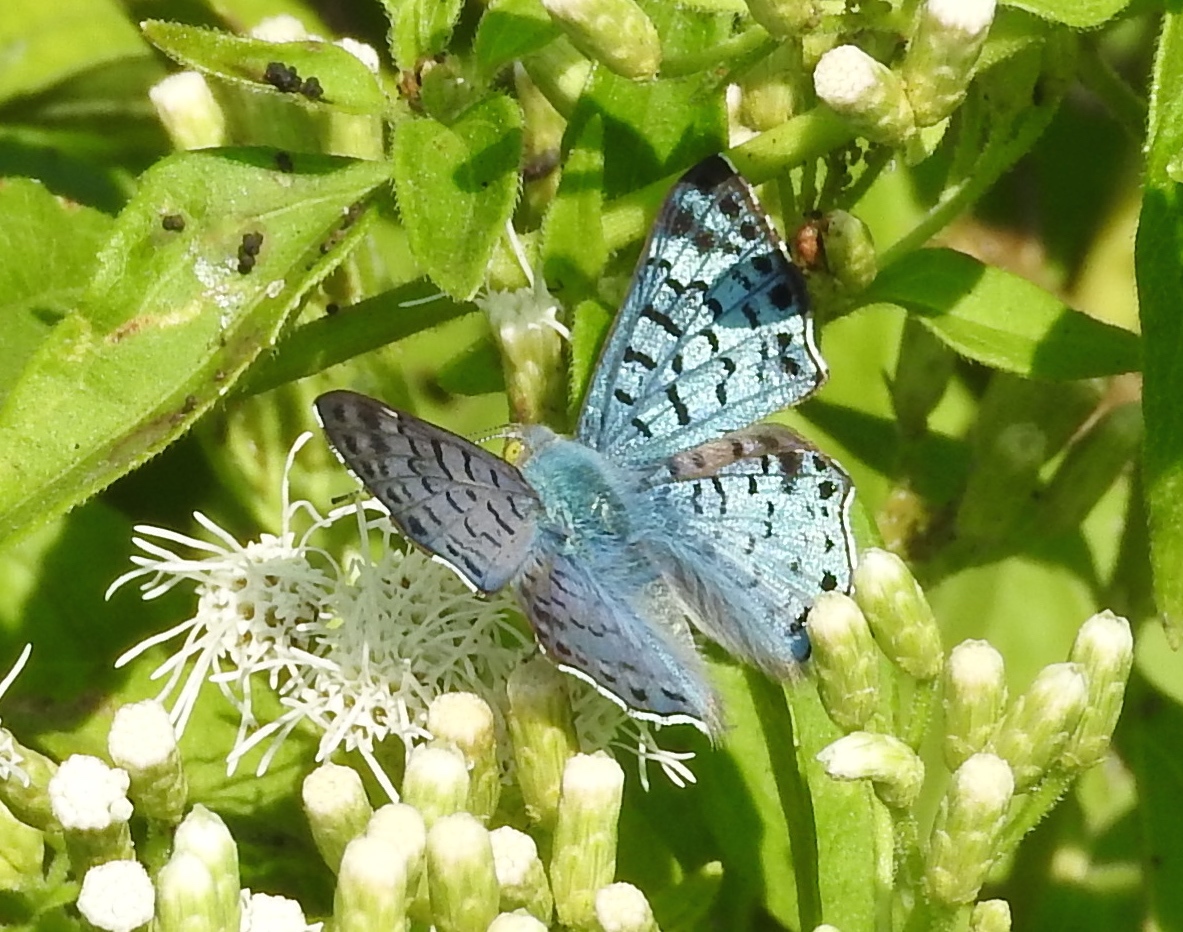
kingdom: Animalia
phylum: Arthropoda
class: Insecta
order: Lepidoptera
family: Riodinidae
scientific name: Riodinidae
